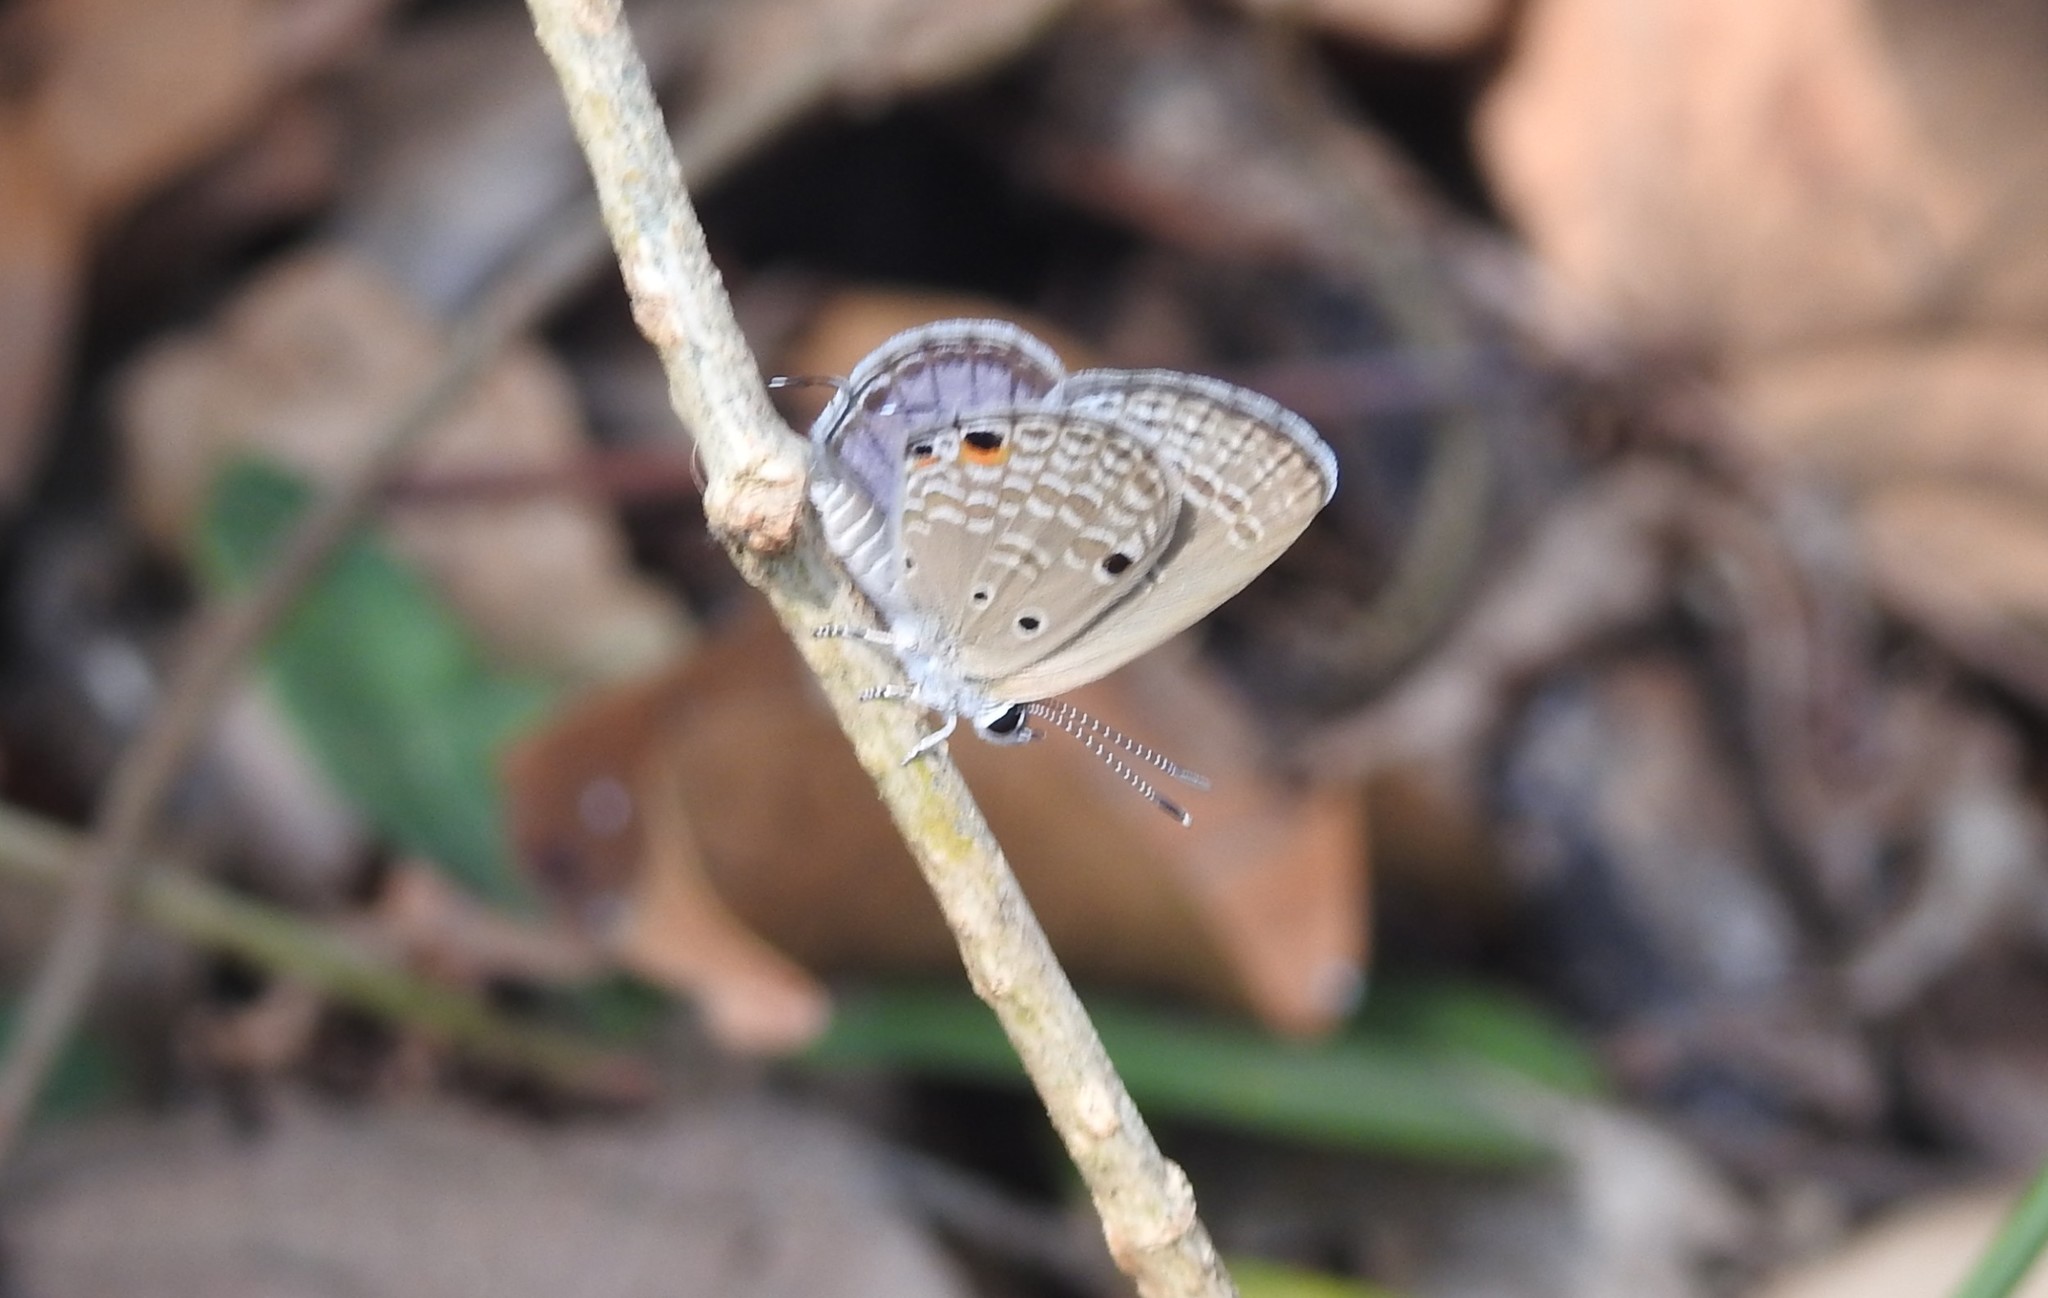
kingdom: Animalia
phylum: Arthropoda
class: Insecta
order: Lepidoptera
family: Lycaenidae
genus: Luthrodes
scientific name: Luthrodes pandava
